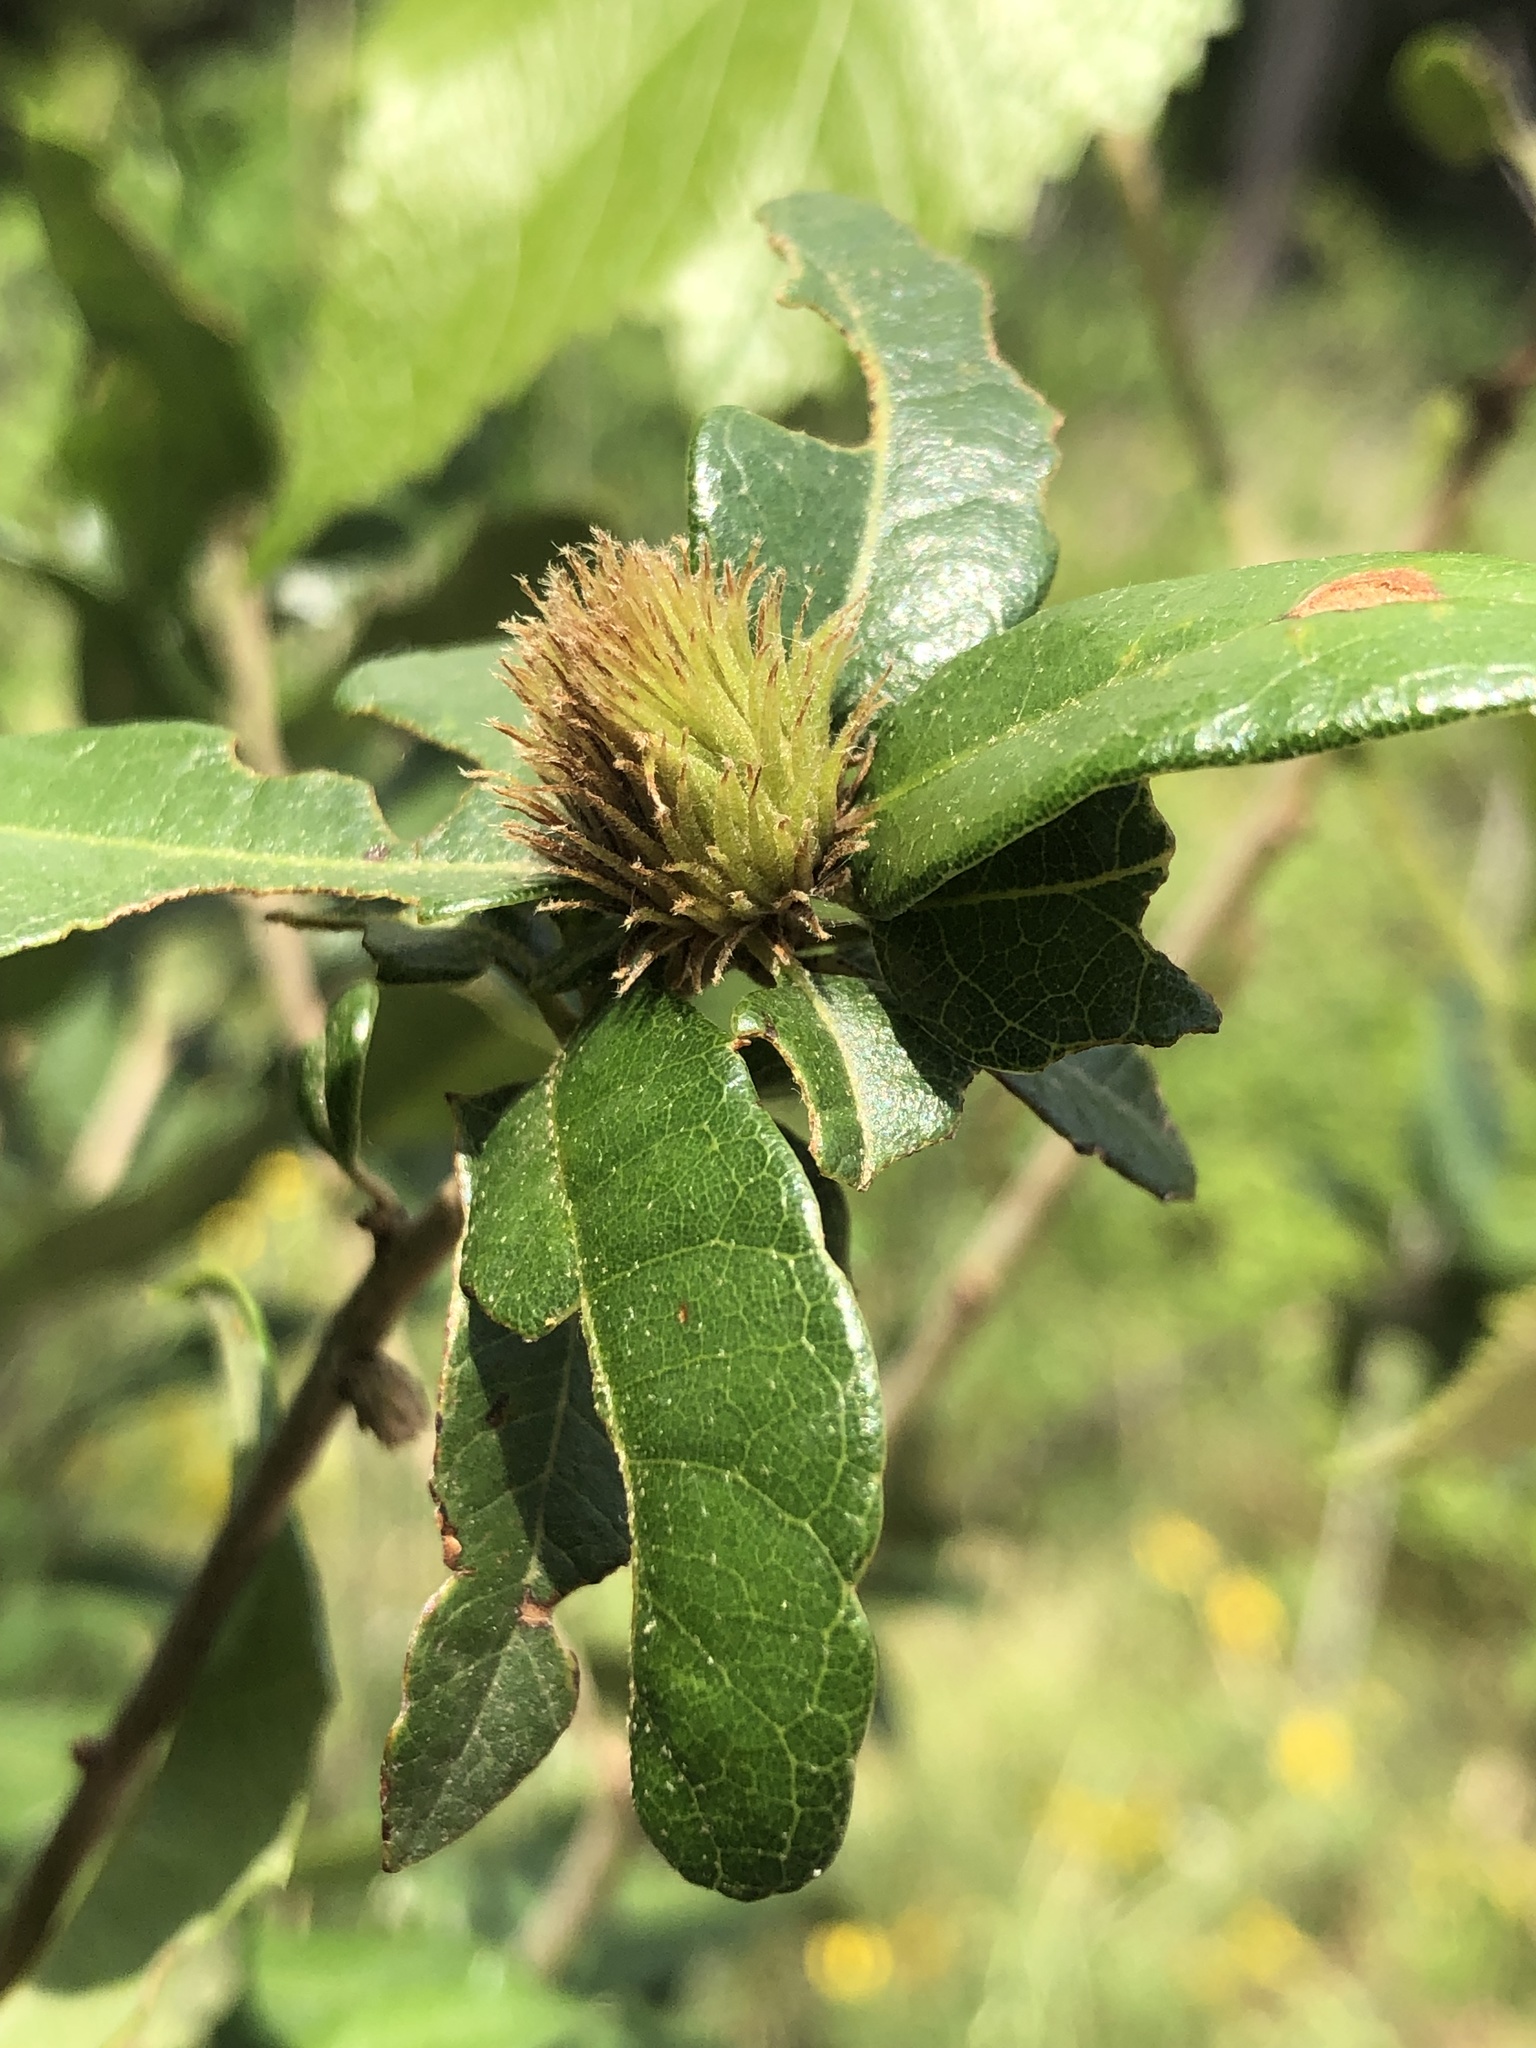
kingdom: Animalia
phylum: Arthropoda
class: Insecta
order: Hymenoptera
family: Cynipidae
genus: Andricus
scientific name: Andricus quercusfoliatus
